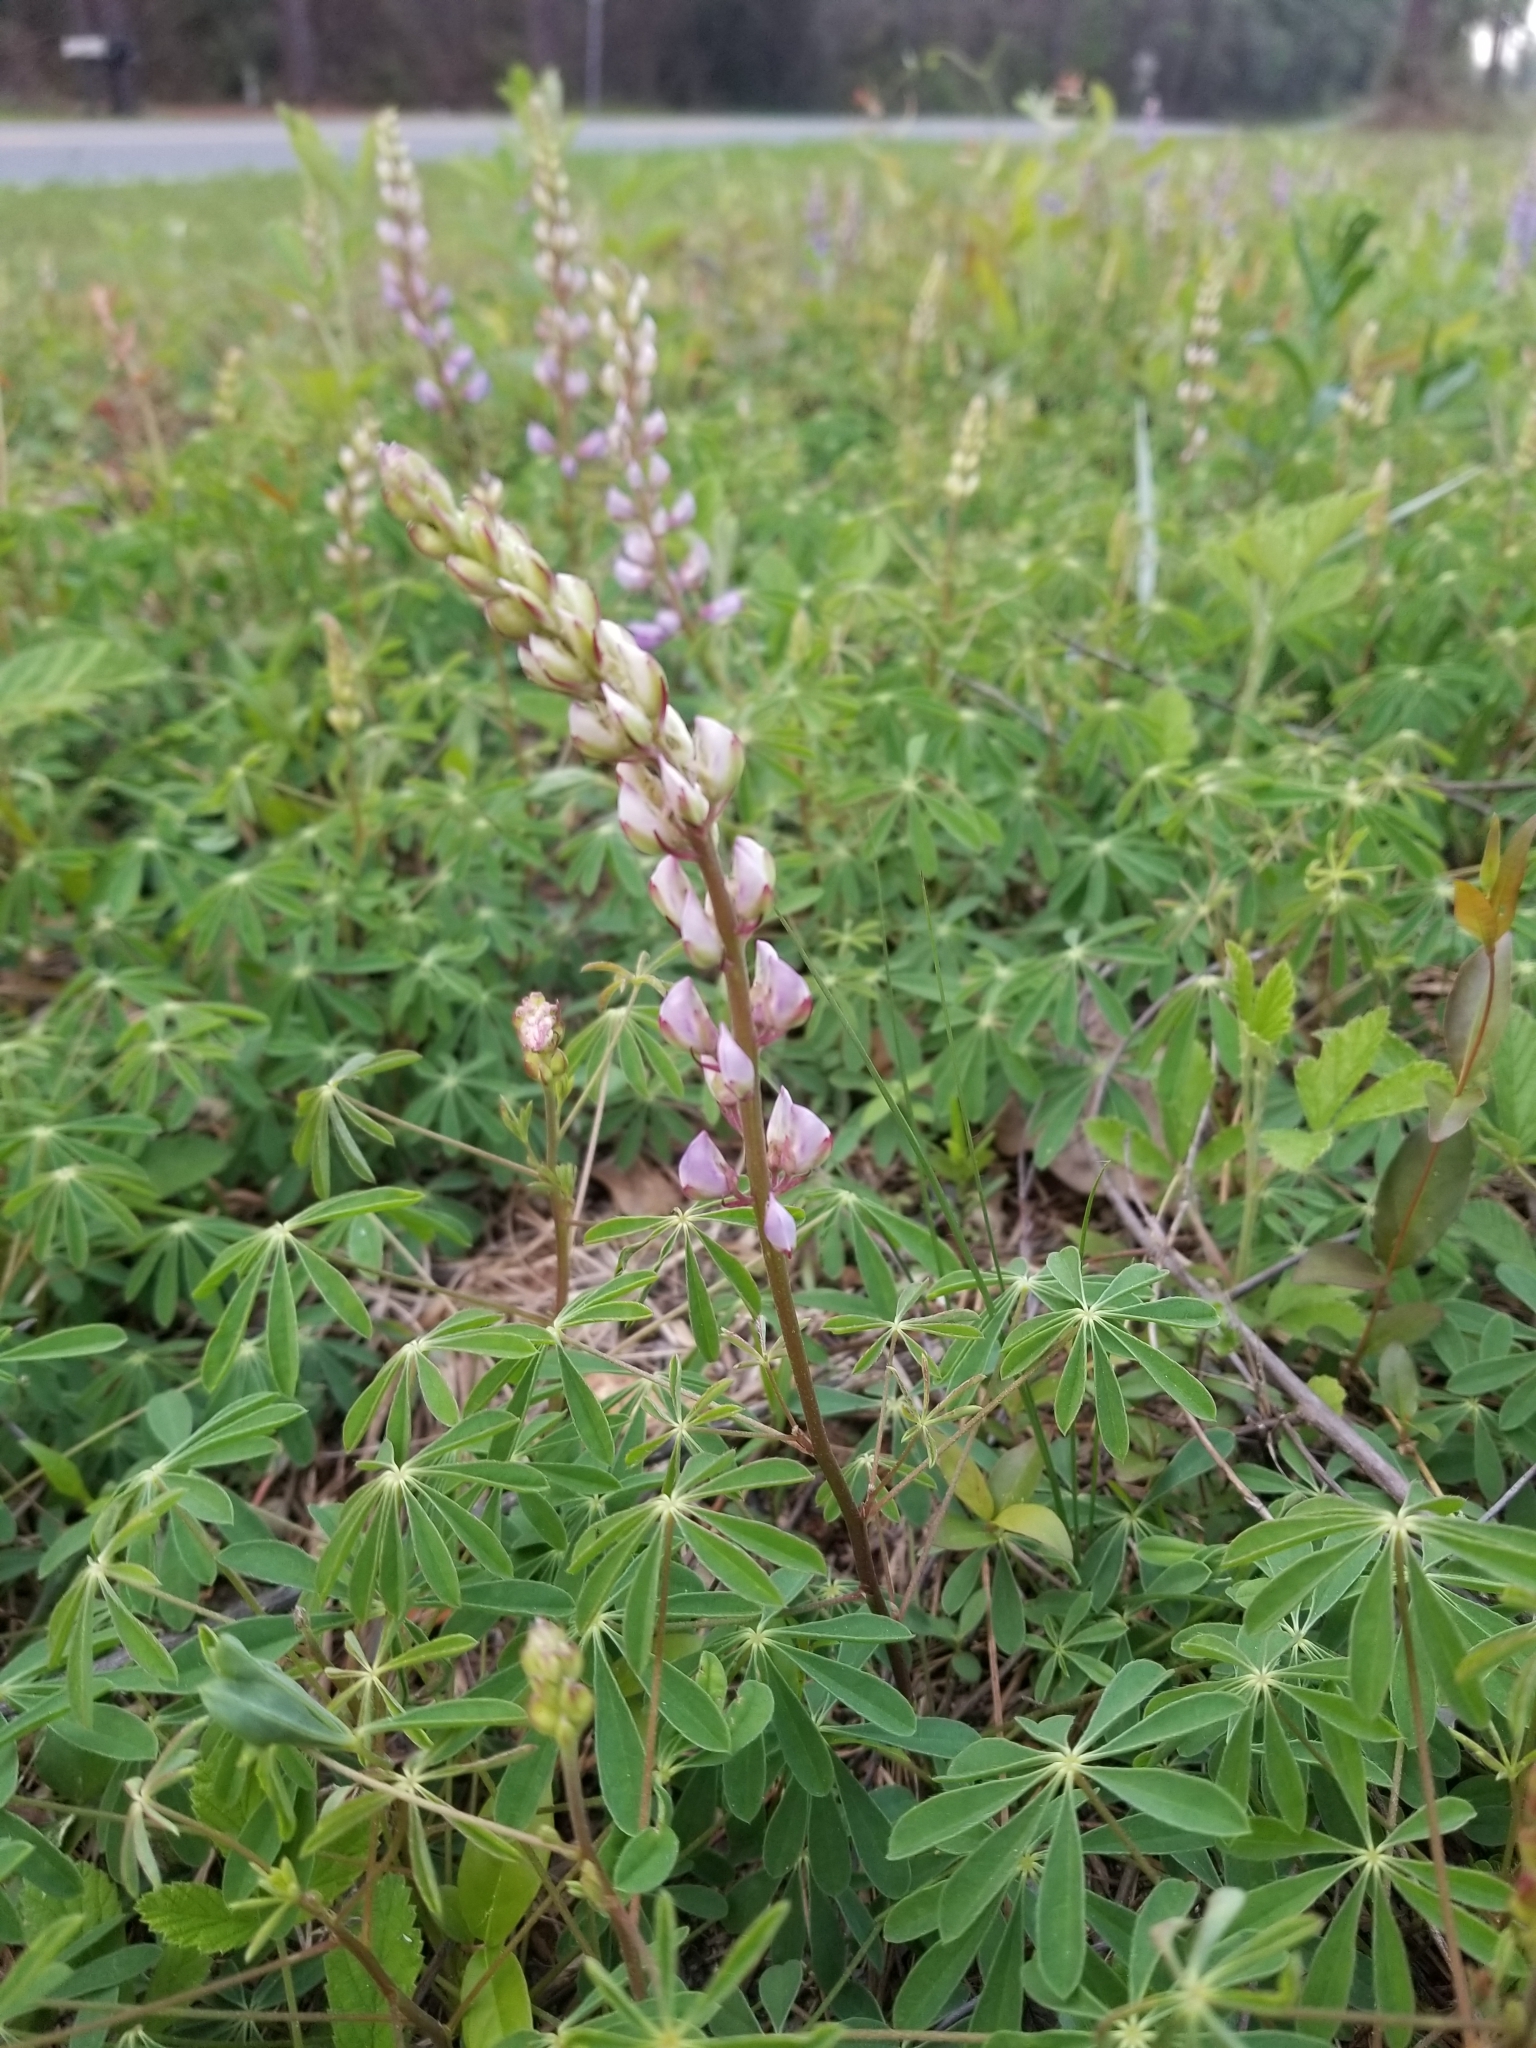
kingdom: Plantae
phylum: Tracheophyta
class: Magnoliopsida
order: Fabales
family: Fabaceae
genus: Lupinus
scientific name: Lupinus perennis
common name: Sundial lupine
